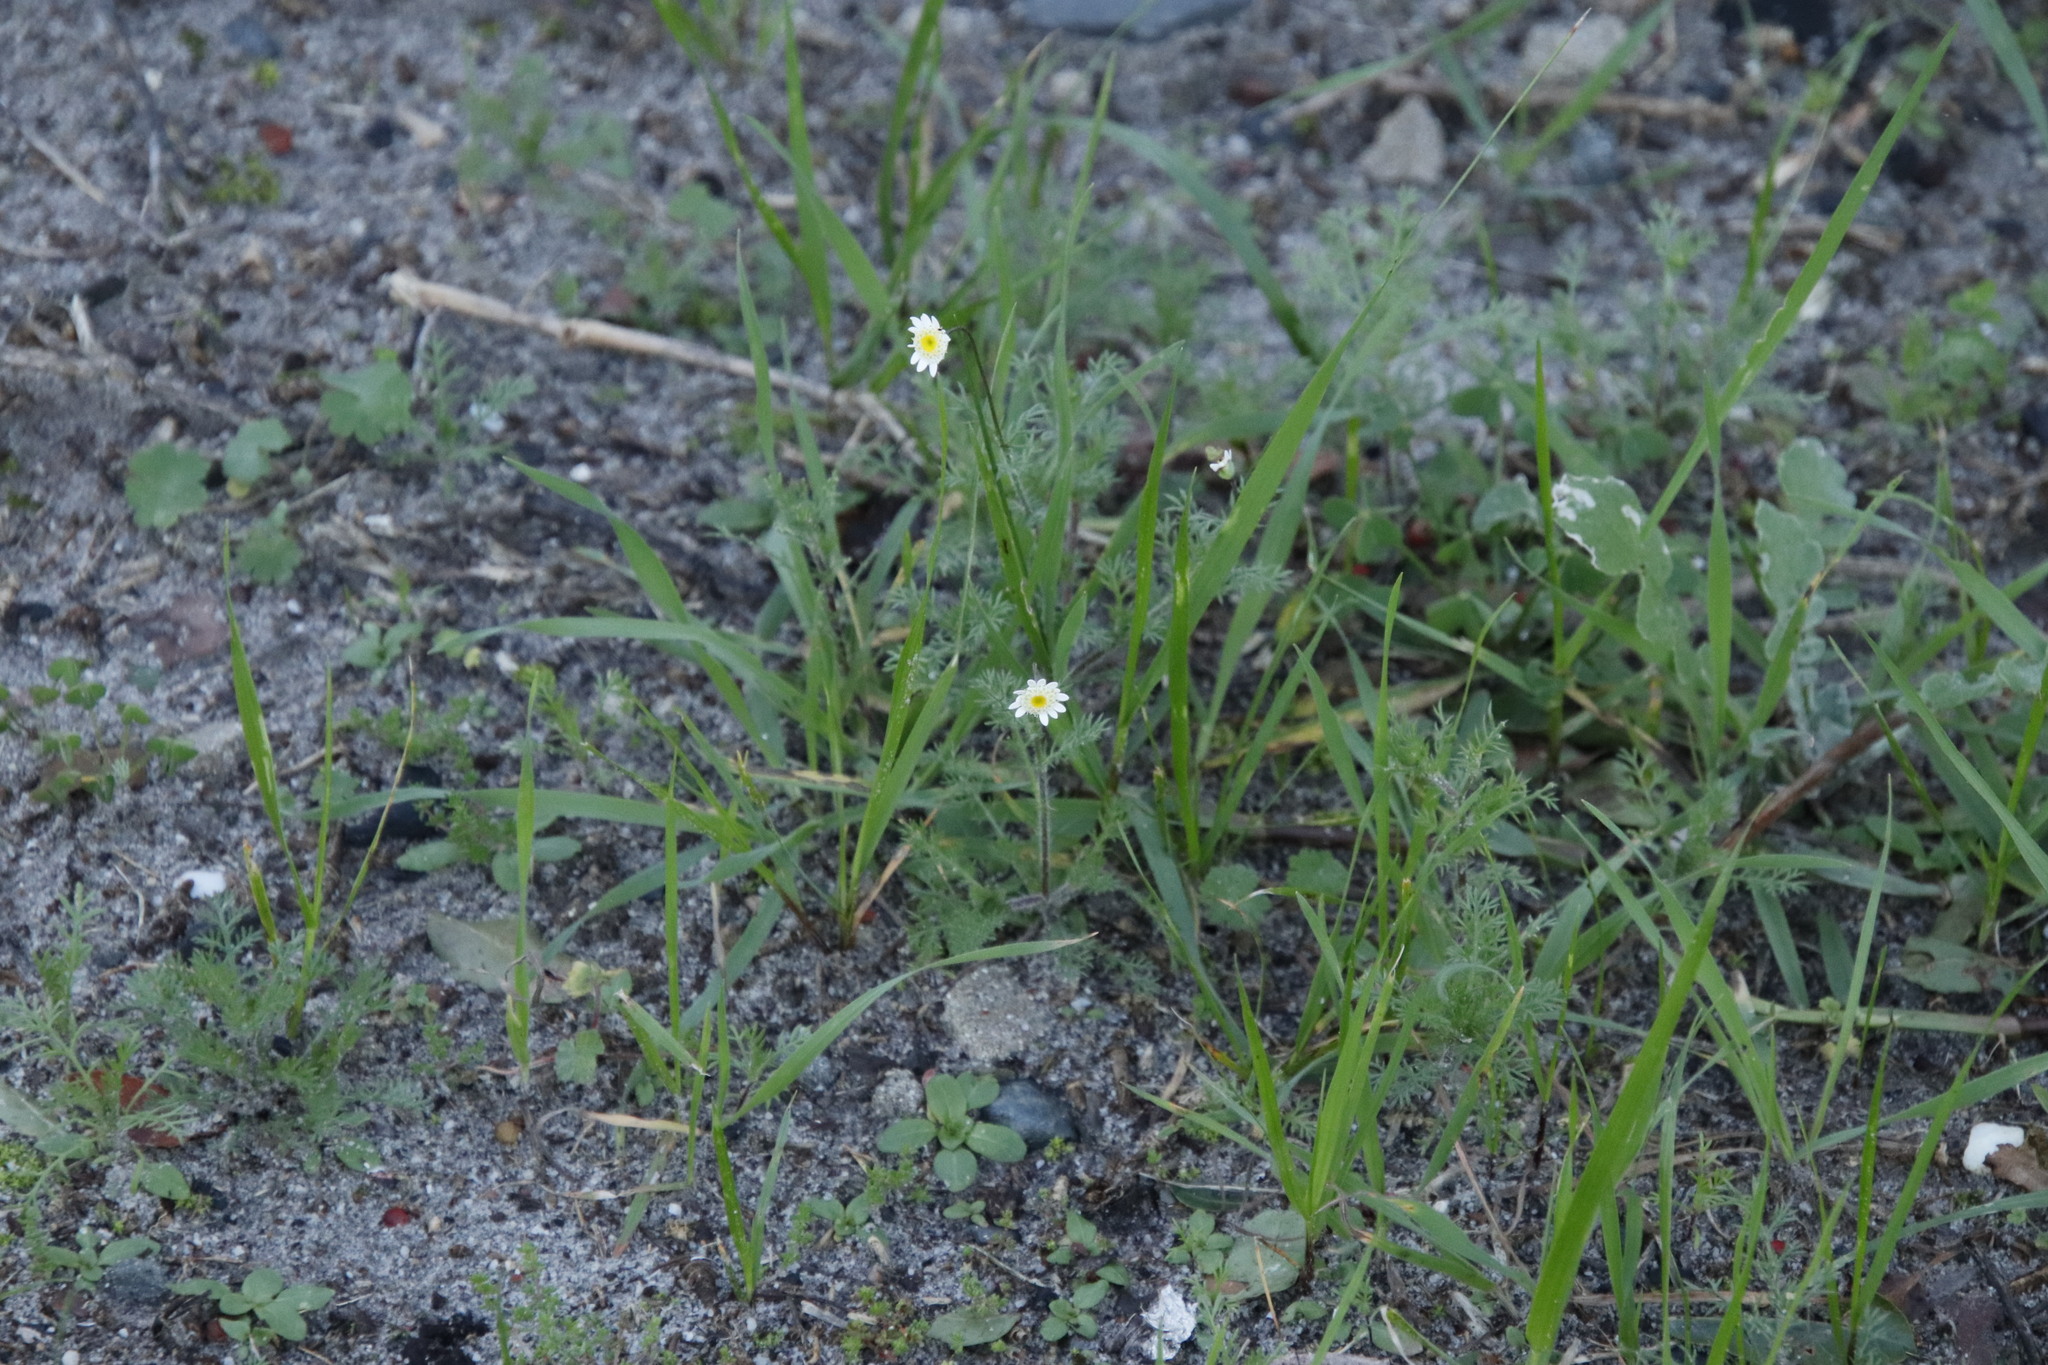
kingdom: Plantae
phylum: Tracheophyta
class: Magnoliopsida
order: Asterales
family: Asteraceae
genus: Cotula
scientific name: Cotula turbinata
